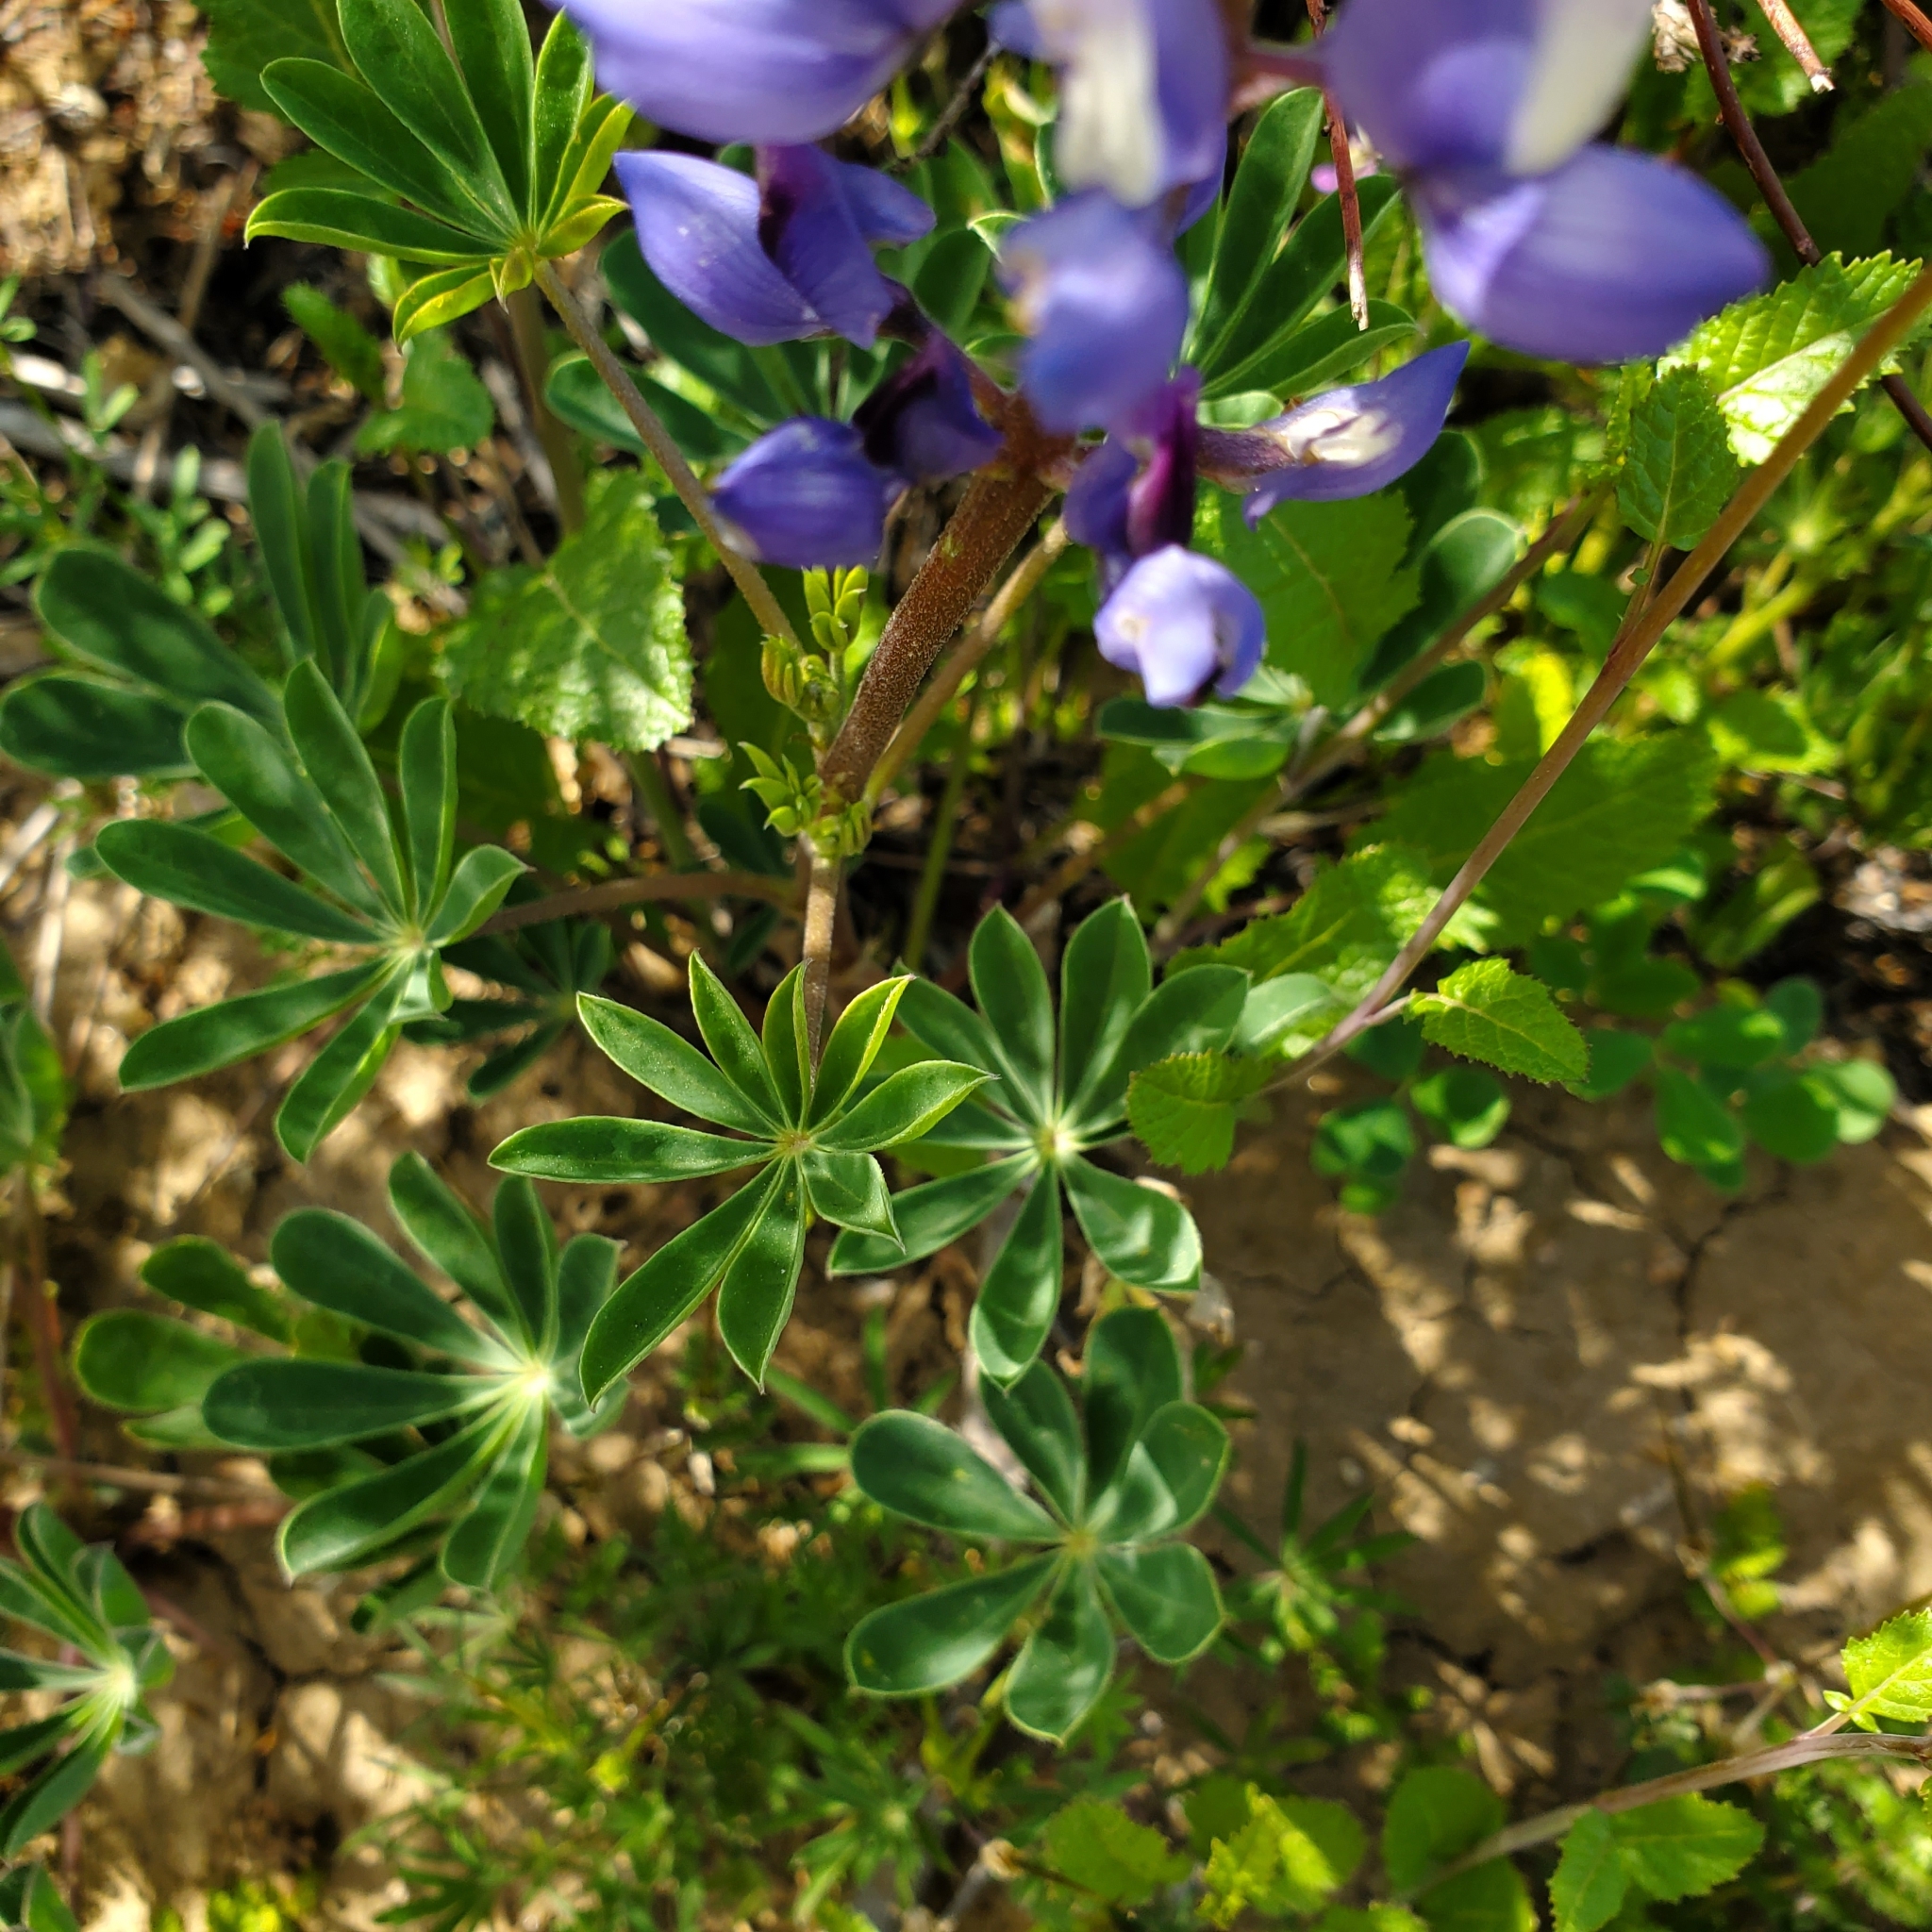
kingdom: Plantae
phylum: Tracheophyta
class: Magnoliopsida
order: Fabales
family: Fabaceae
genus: Lupinus
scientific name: Lupinus succulentus
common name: Arroyo lupine
